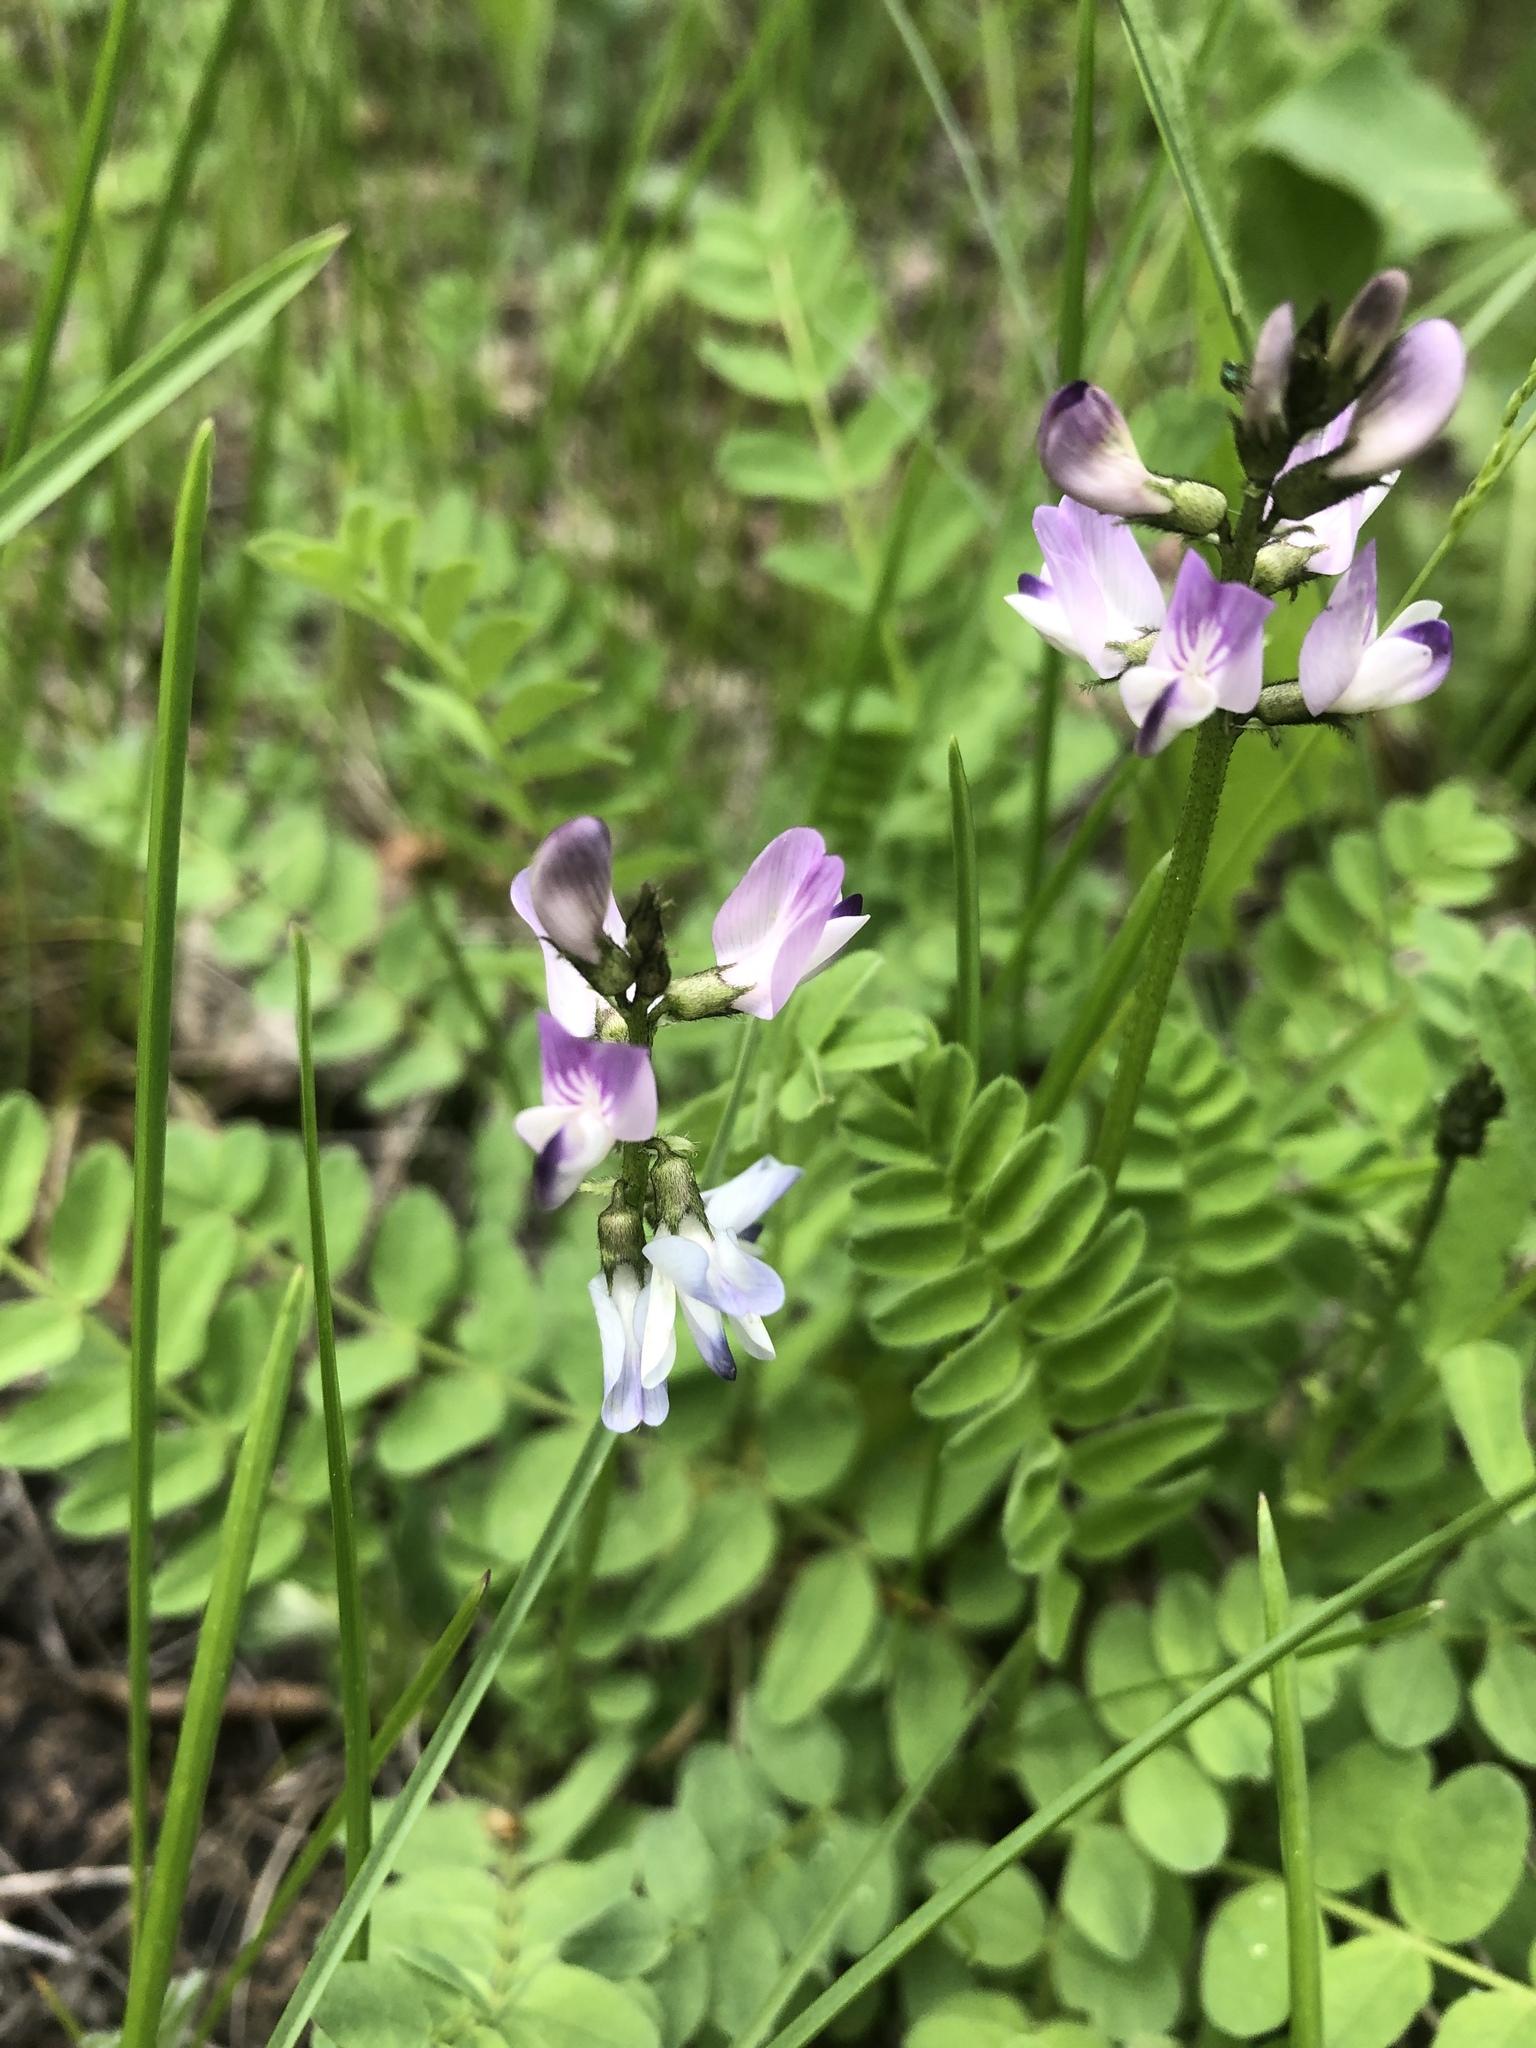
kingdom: Plantae
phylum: Tracheophyta
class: Magnoliopsida
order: Fabales
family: Fabaceae
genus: Astragalus
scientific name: Astragalus alpinus
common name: Alpine milk-vetch
